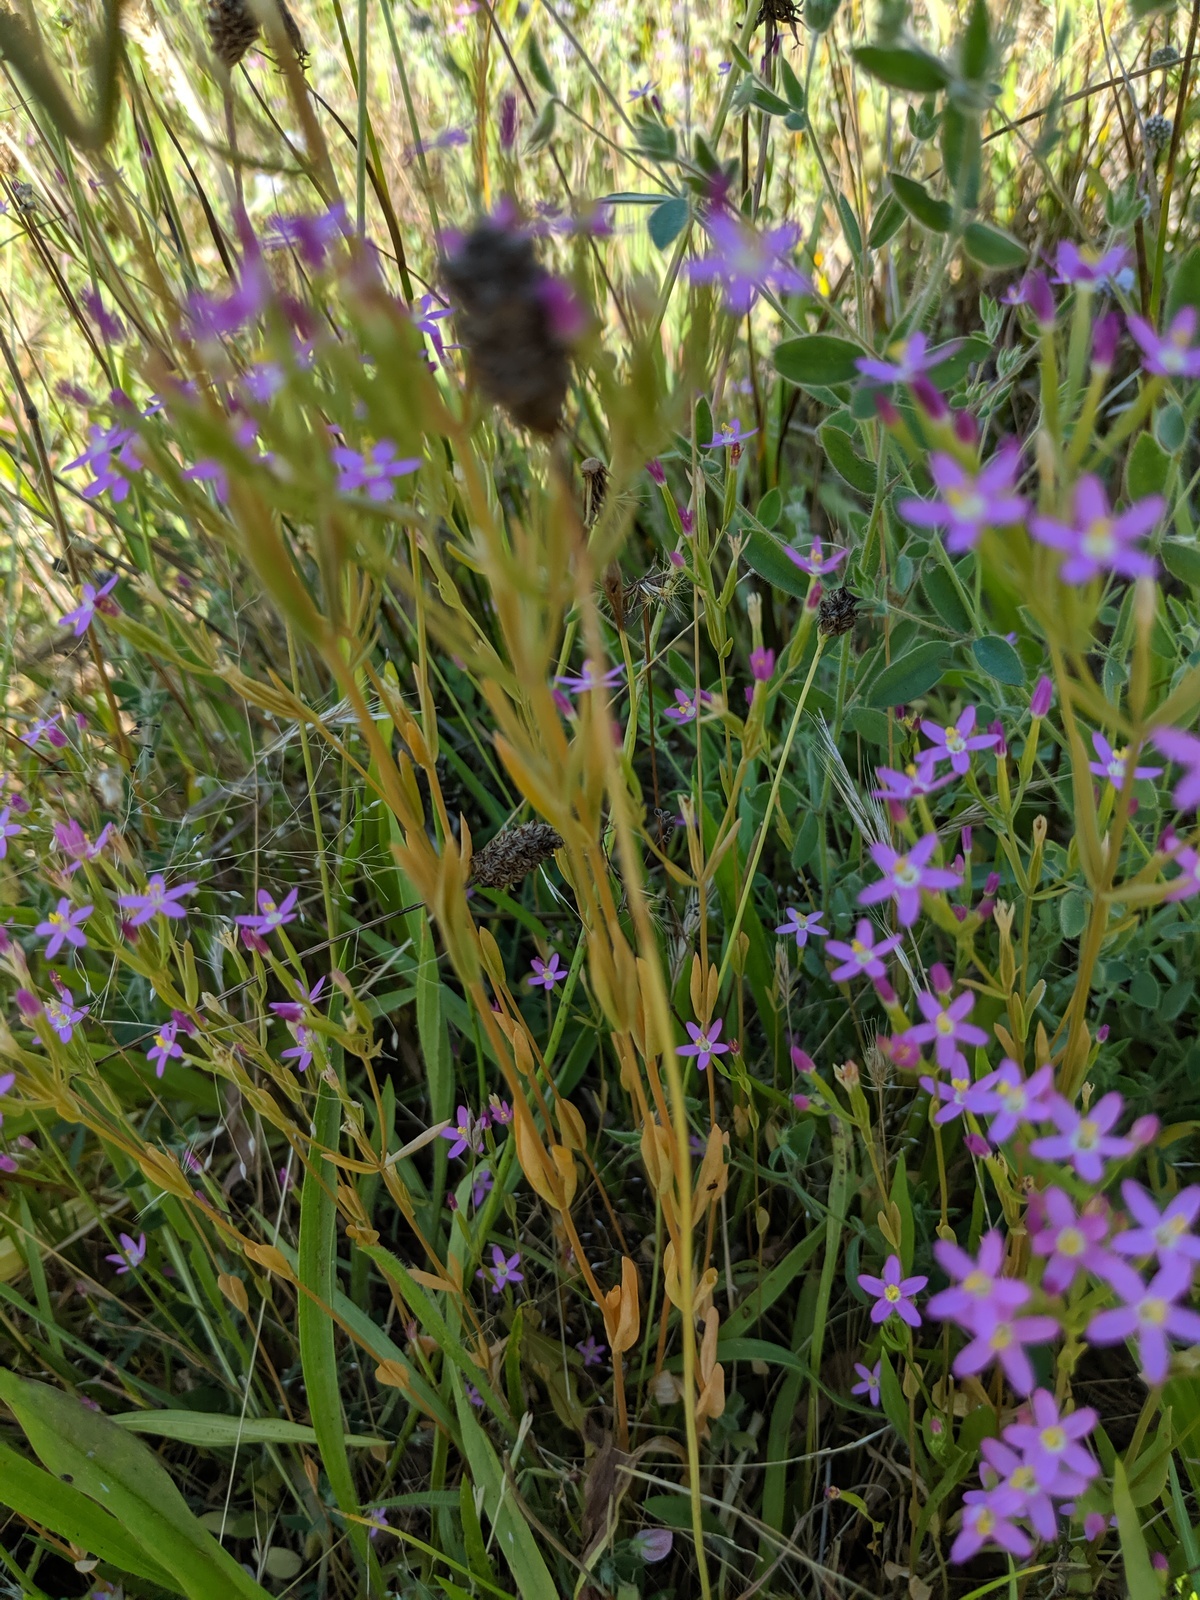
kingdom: Plantae
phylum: Tracheophyta
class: Magnoliopsida
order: Gentianales
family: Gentianaceae
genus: Zeltnera
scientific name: Zeltnera muhlenbergii
